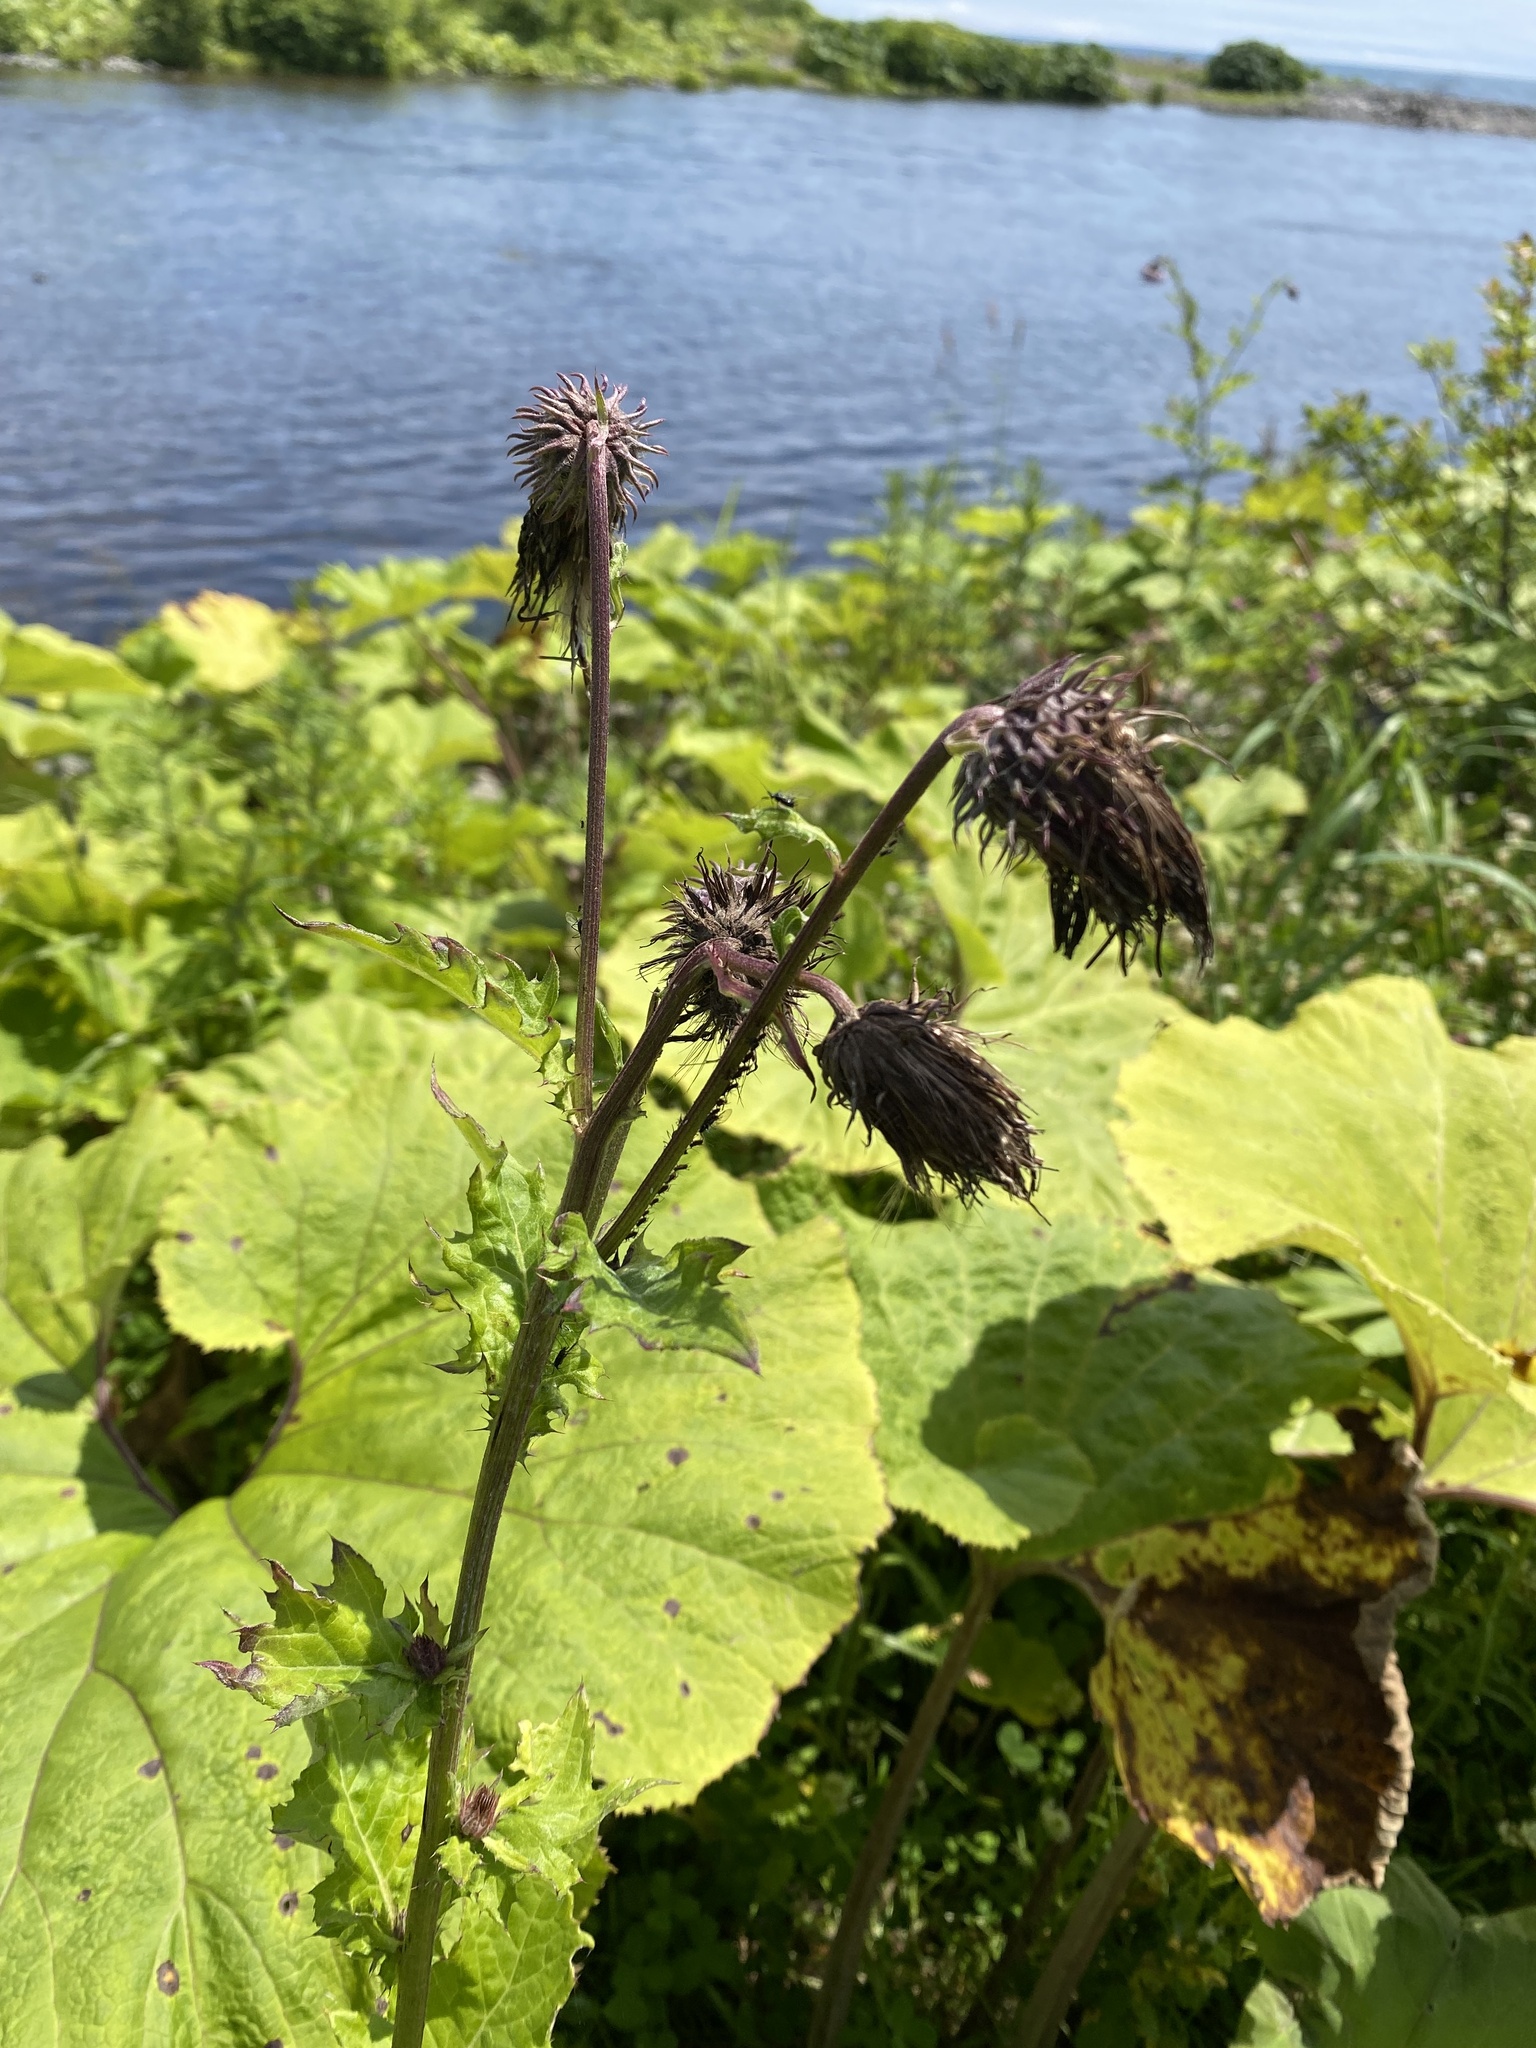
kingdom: Plantae
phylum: Tracheophyta
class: Magnoliopsida
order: Asterales
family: Asteraceae
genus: Cirsium
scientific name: Cirsium kamtschaticum
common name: Kamchatka thistle
